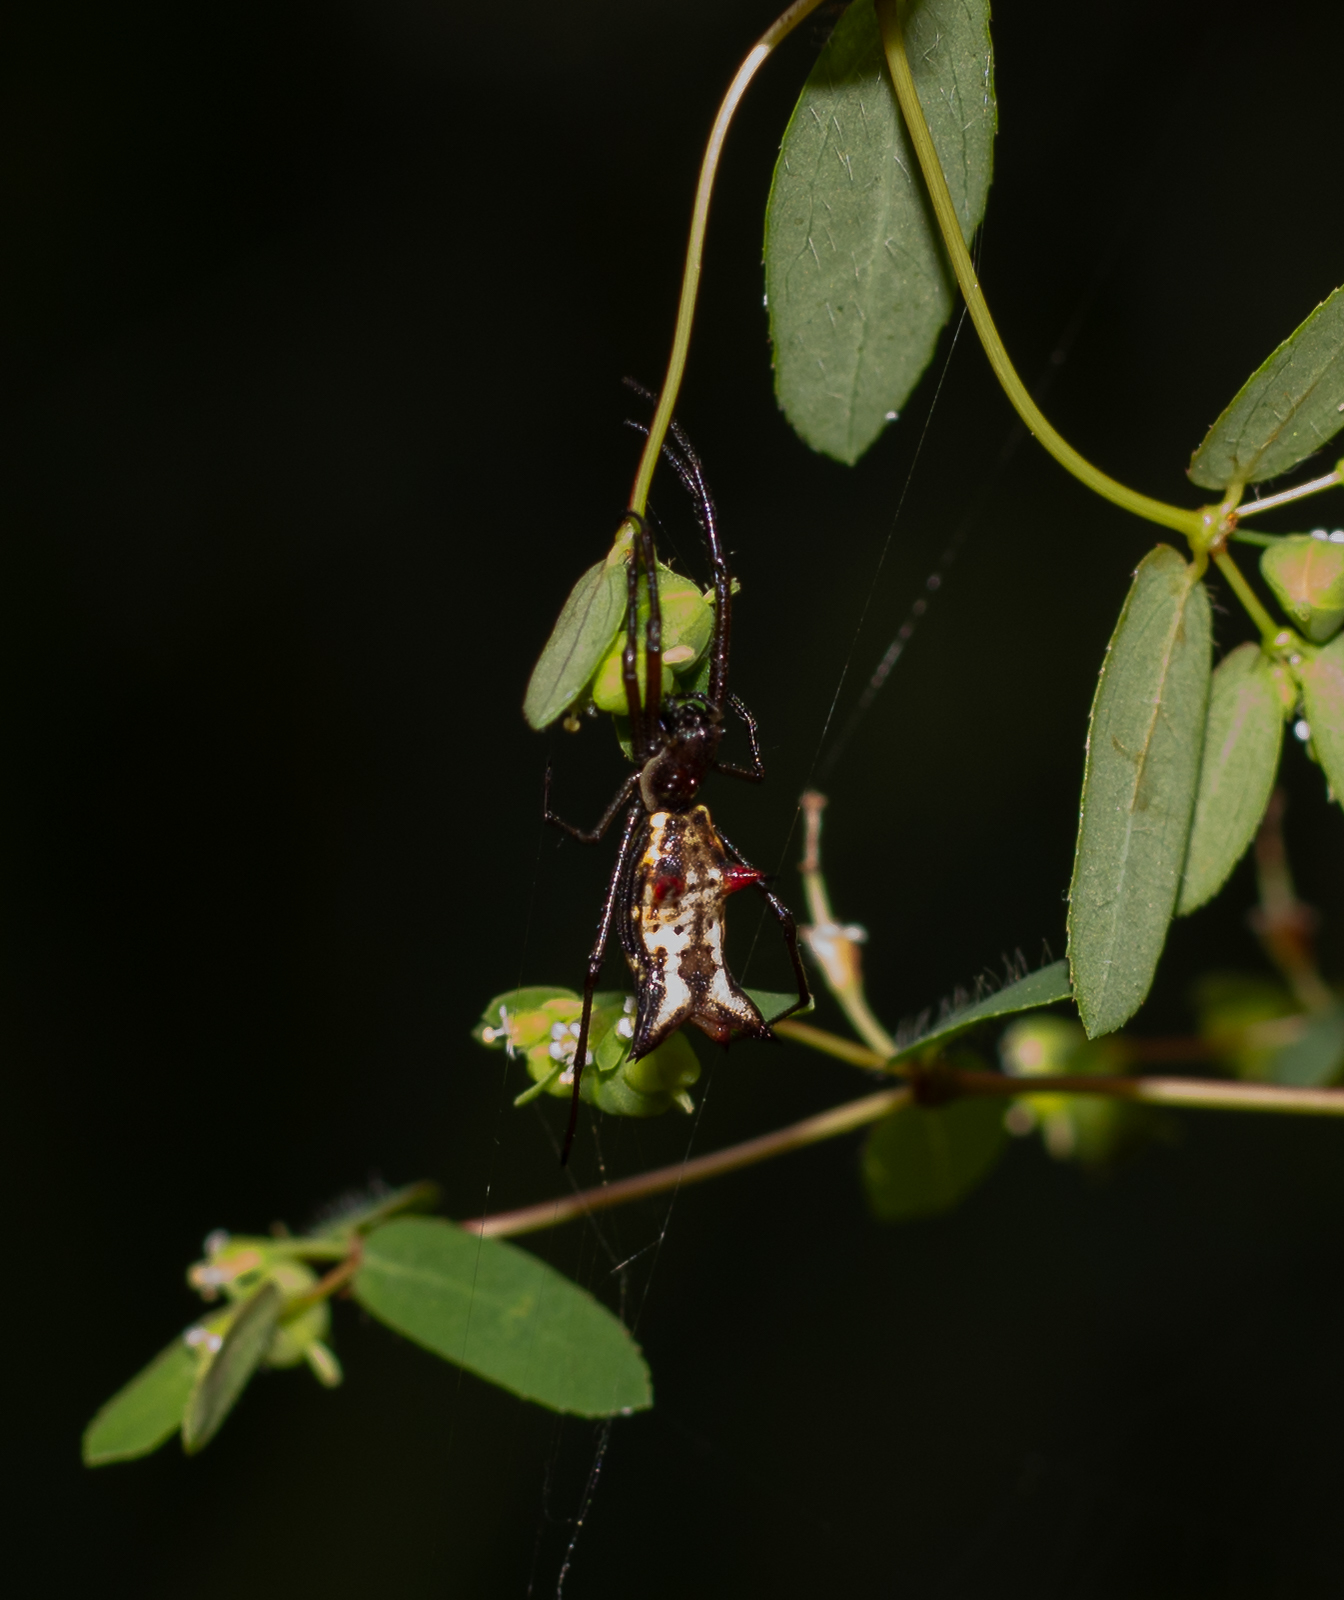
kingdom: Animalia
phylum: Arthropoda
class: Arachnida
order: Araneae
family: Araneidae
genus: Micrathena
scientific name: Micrathena nigrichelis
